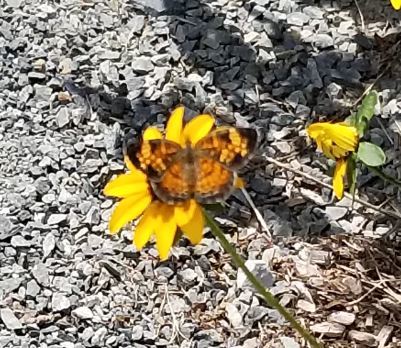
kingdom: Animalia
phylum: Arthropoda
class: Insecta
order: Lepidoptera
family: Nymphalidae
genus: Phyciodes
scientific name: Phyciodes tharos
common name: Pearl crescent
